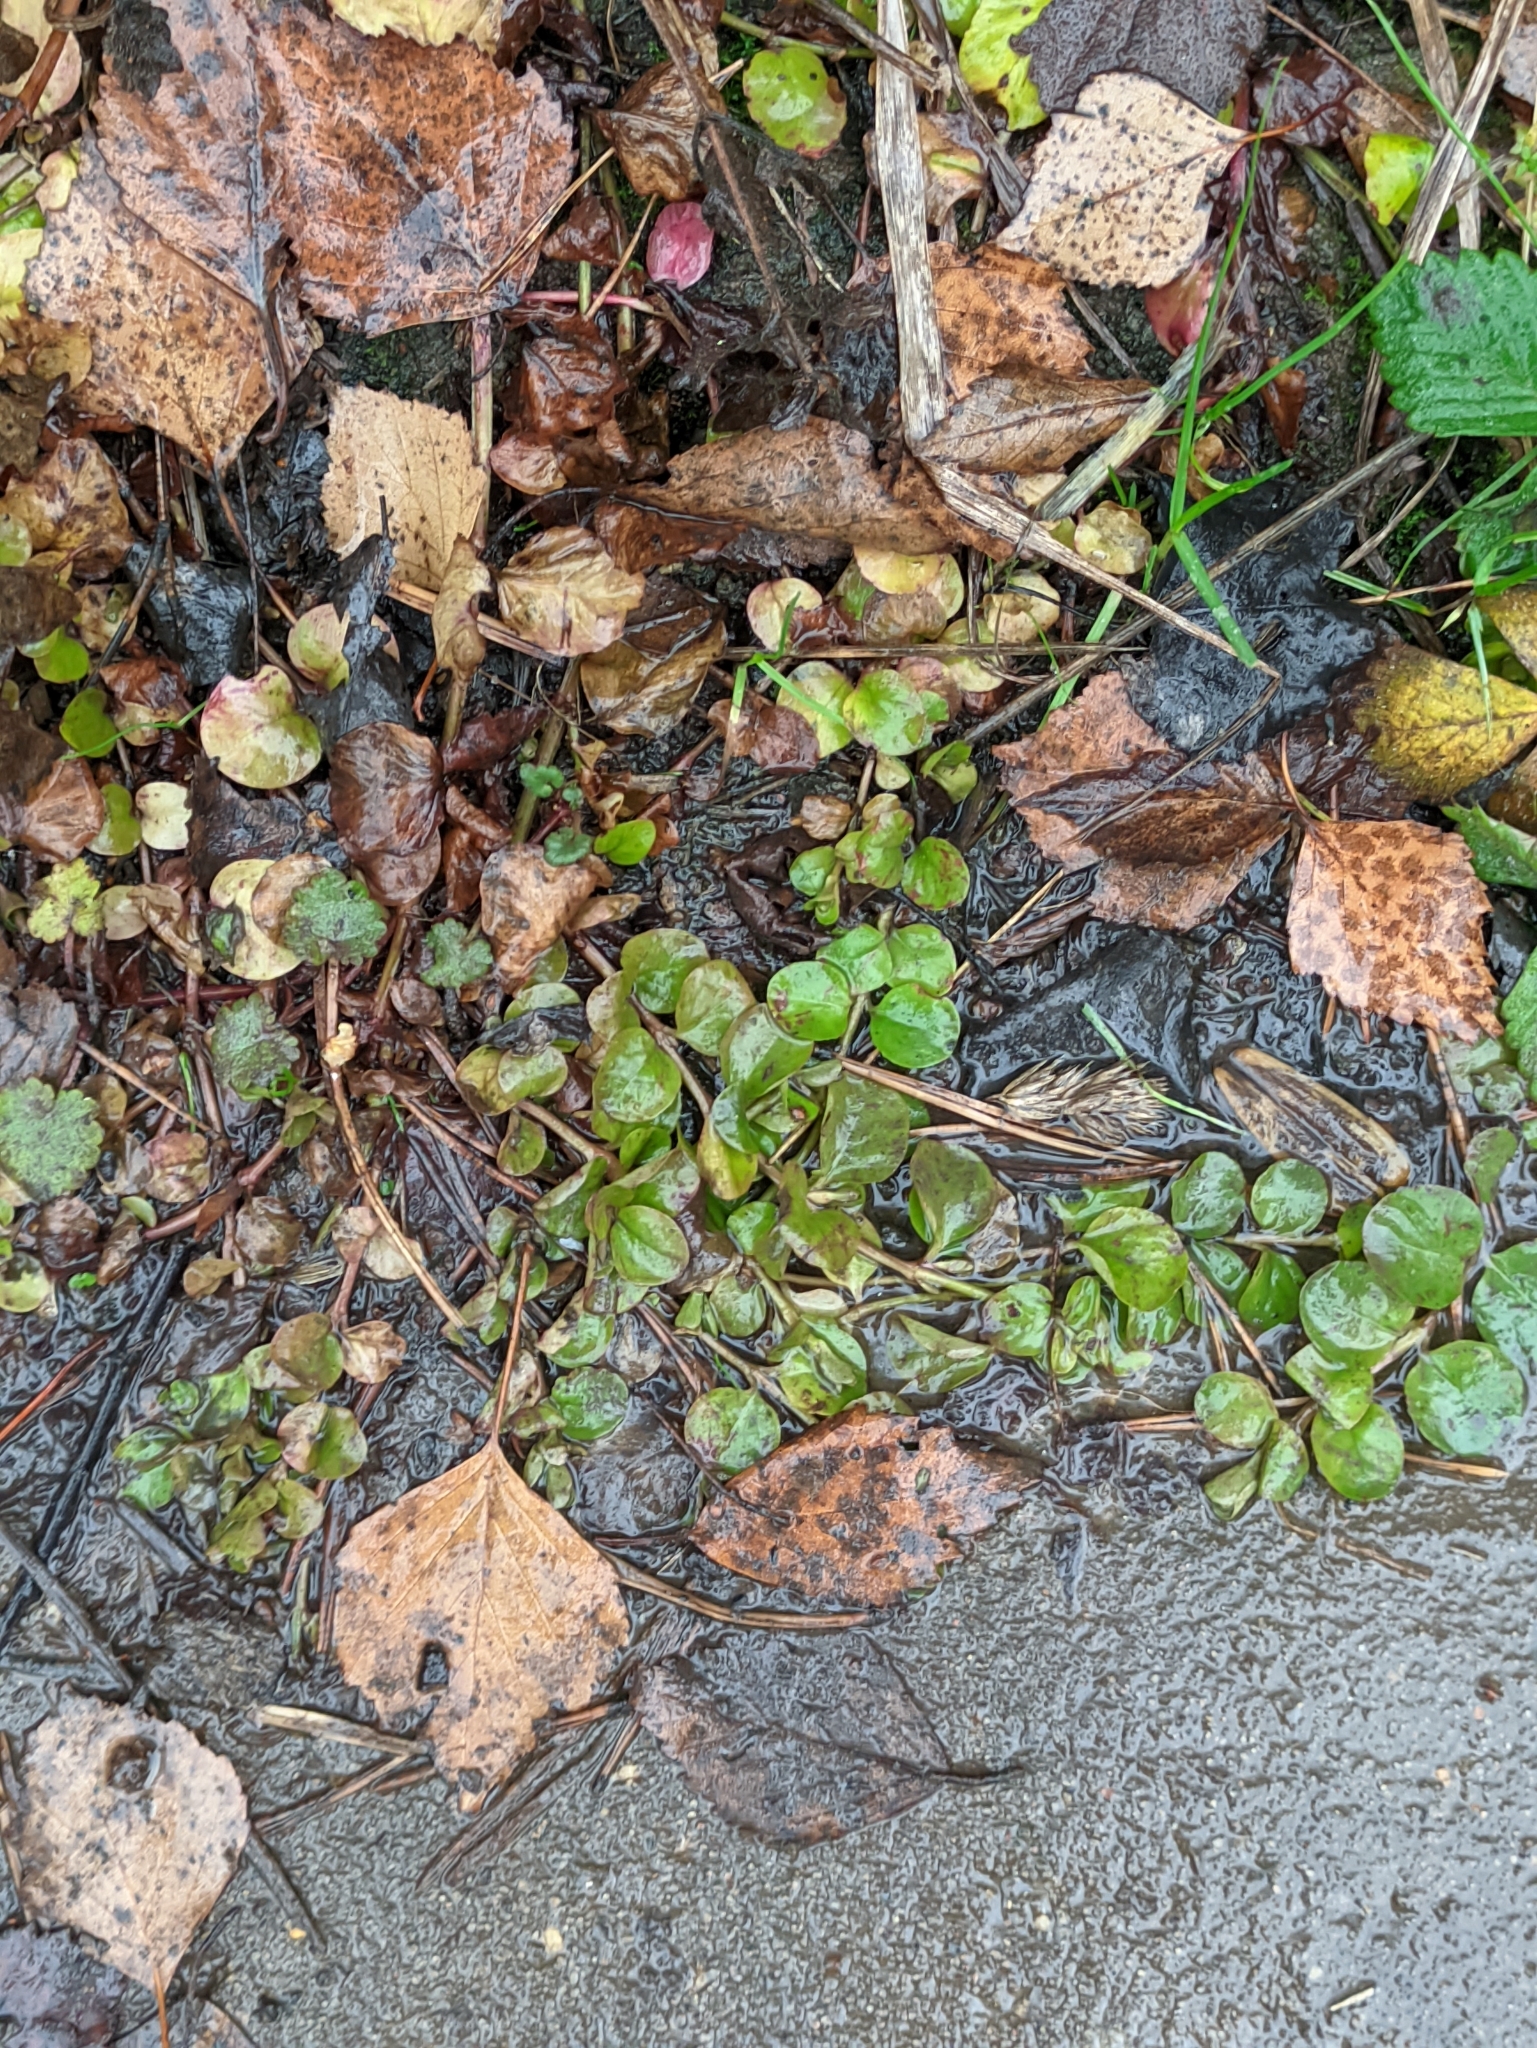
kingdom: Plantae
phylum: Tracheophyta
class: Magnoliopsida
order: Ericales
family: Primulaceae
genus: Lysimachia
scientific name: Lysimachia nummularia
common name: Moneywort
